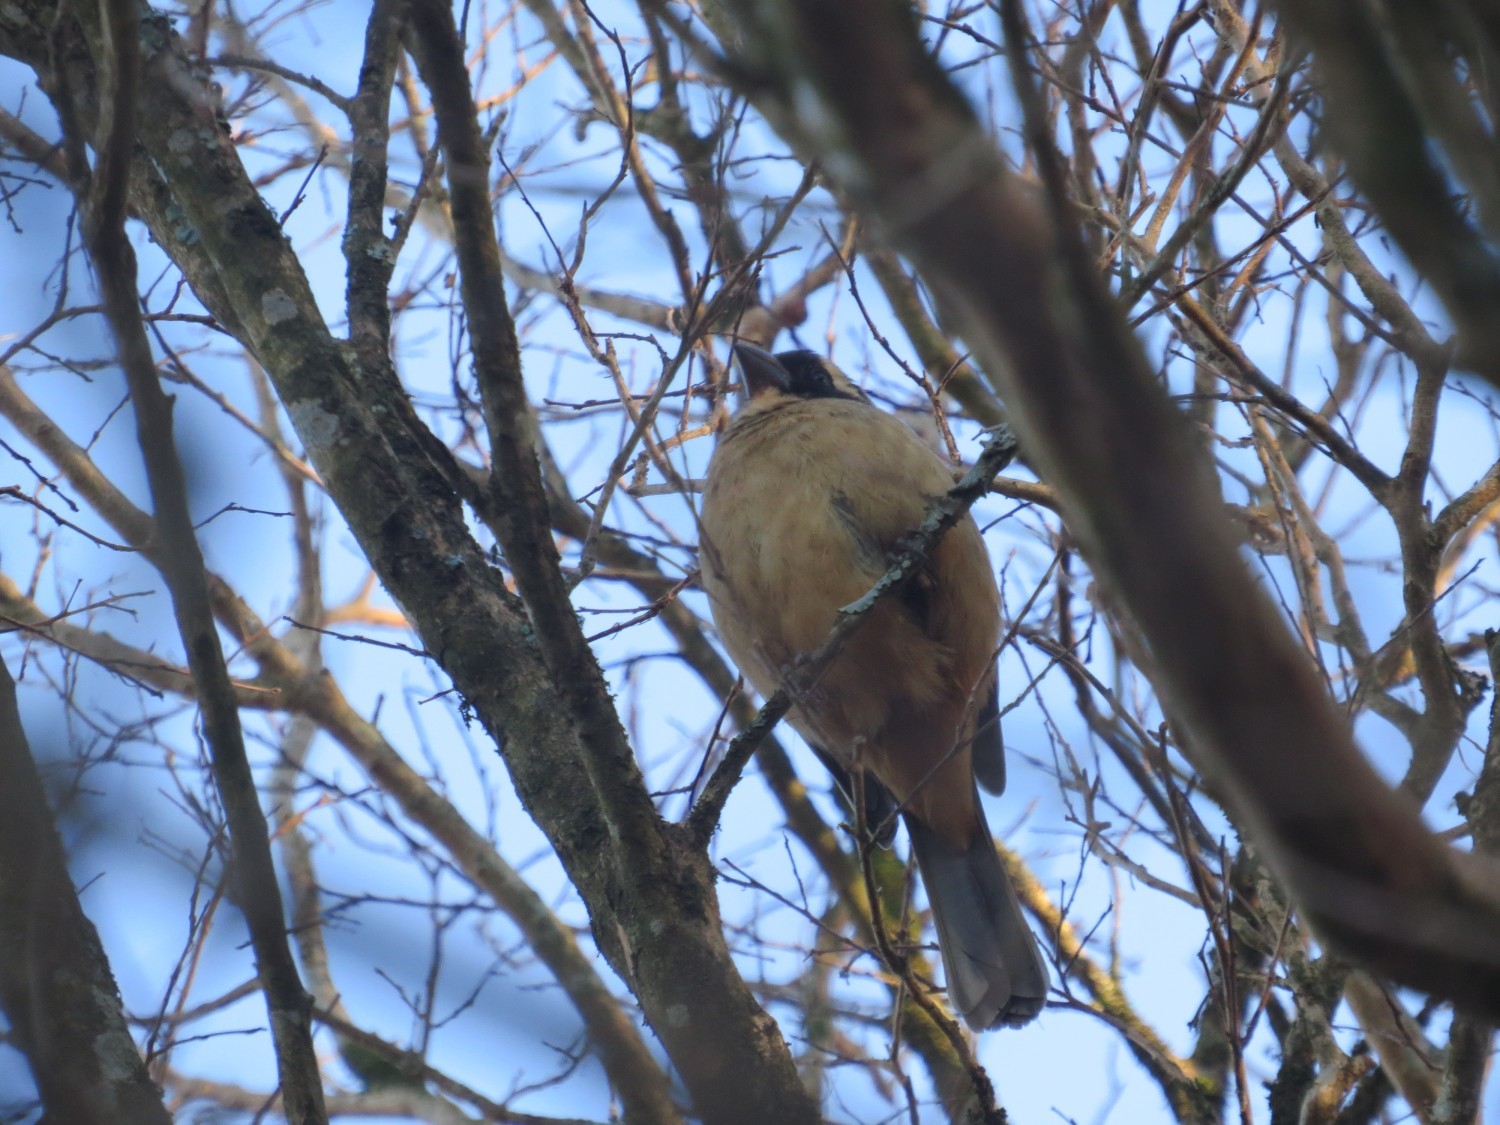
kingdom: Animalia
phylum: Chordata
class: Aves
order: Passeriformes
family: Thraupidae
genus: Saltator
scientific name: Saltator aurantiirostris
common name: Golden-billed saltator
